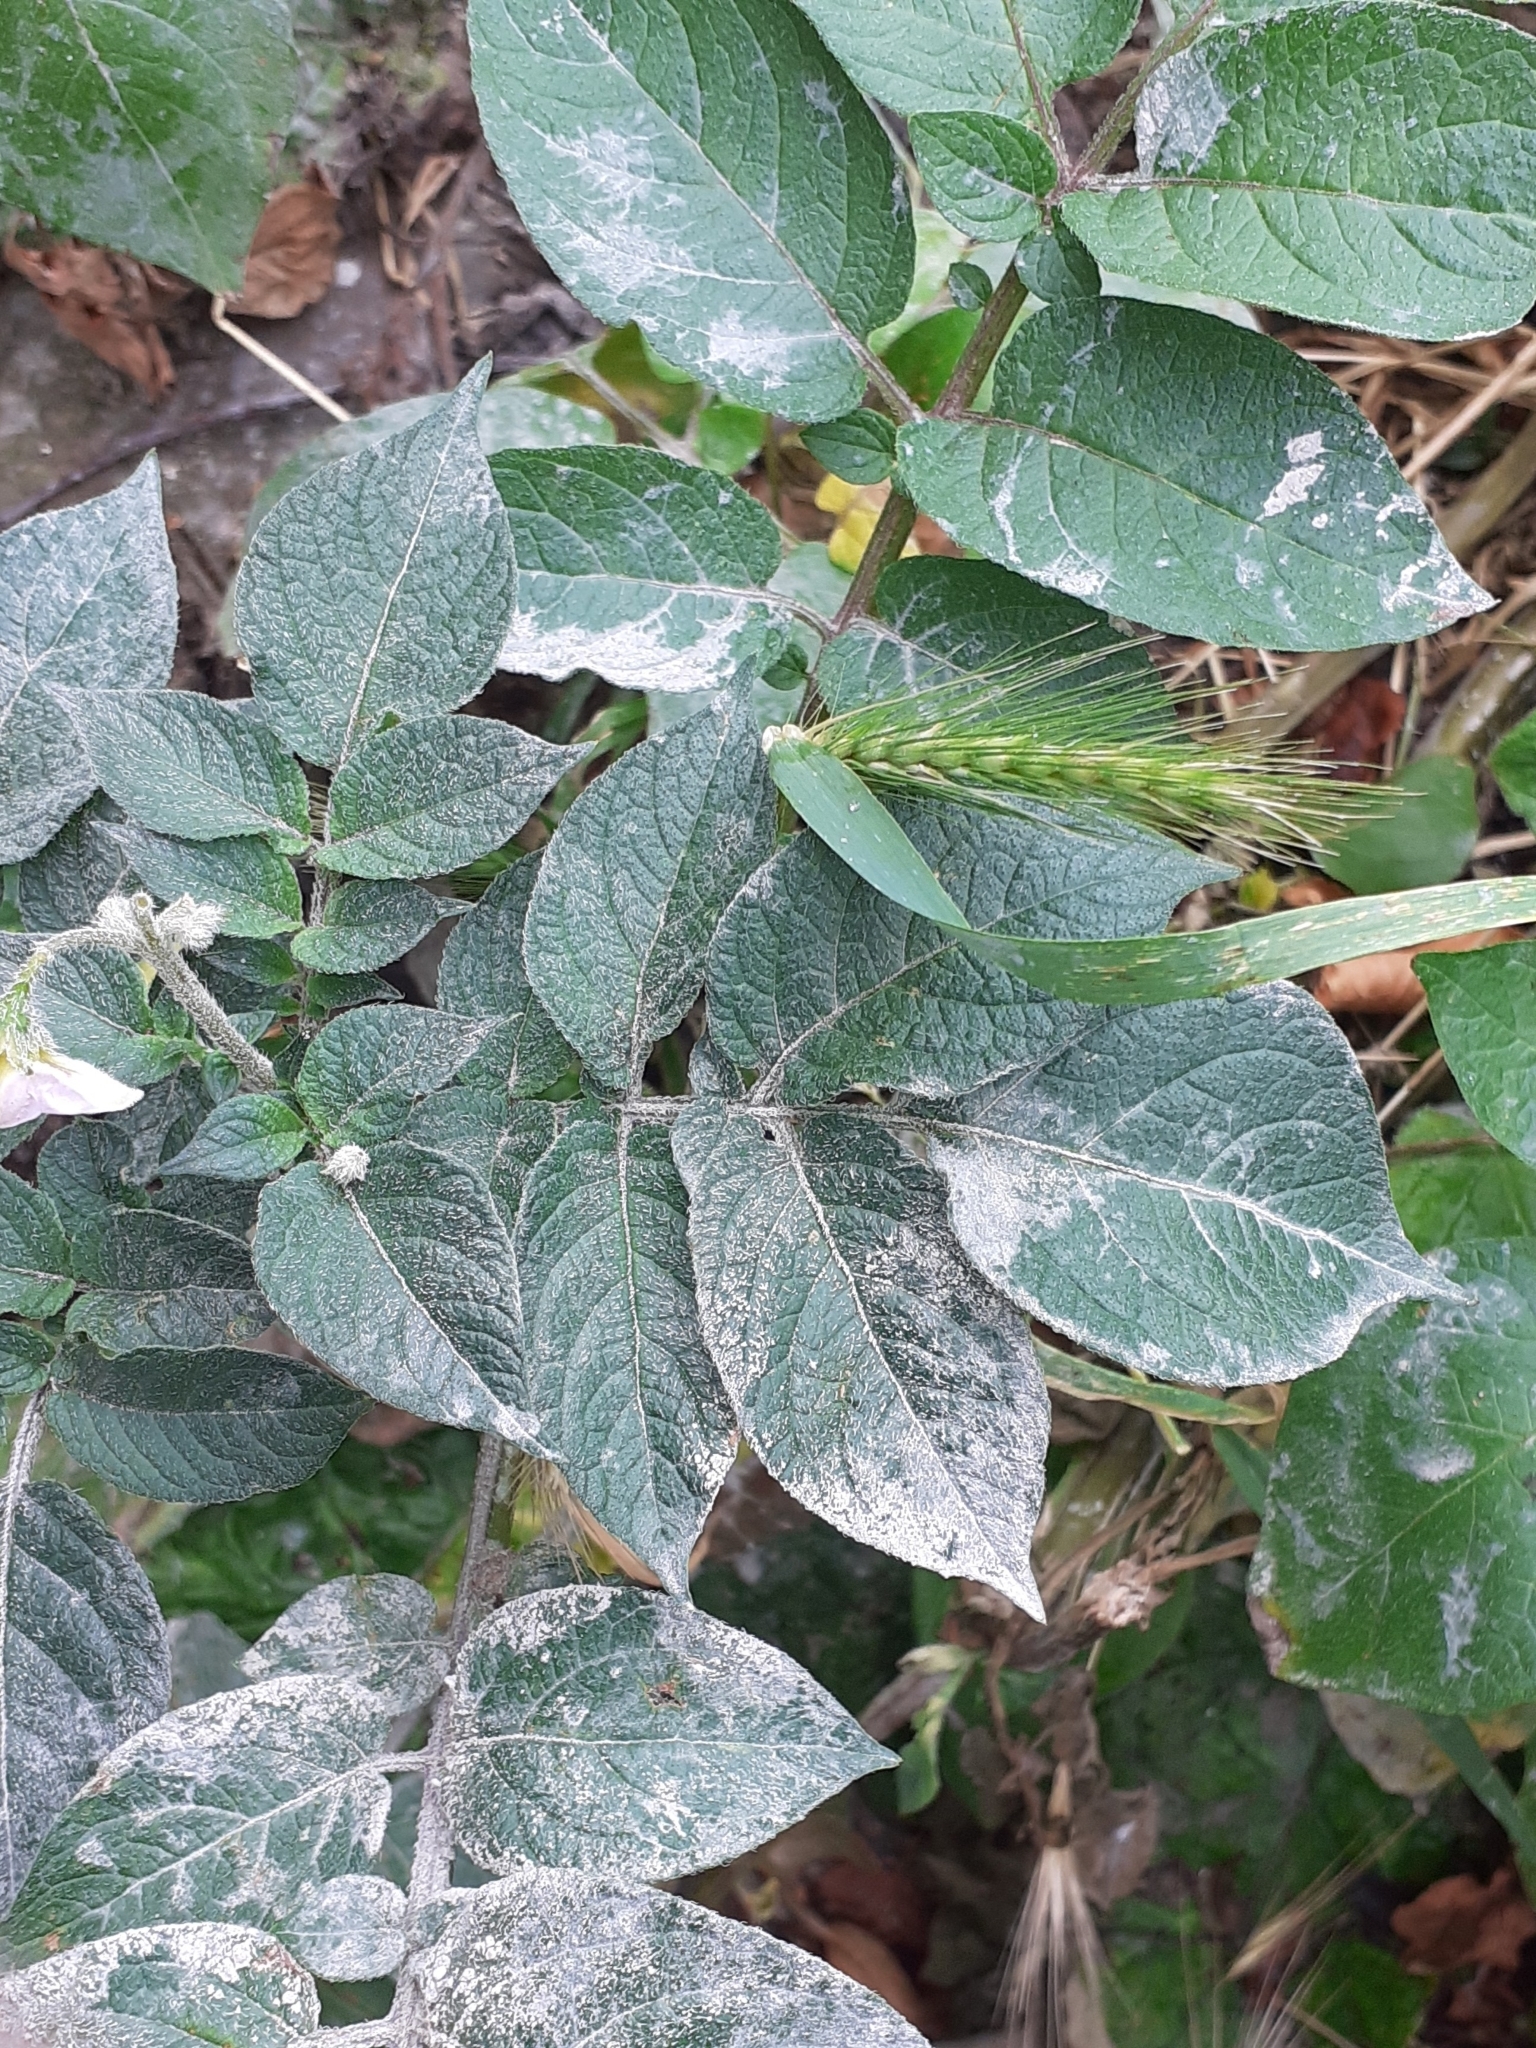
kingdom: Plantae
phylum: Tracheophyta
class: Magnoliopsida
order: Solanales
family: Solanaceae
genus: Solanum
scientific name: Solanum tuberosum
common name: Potato
